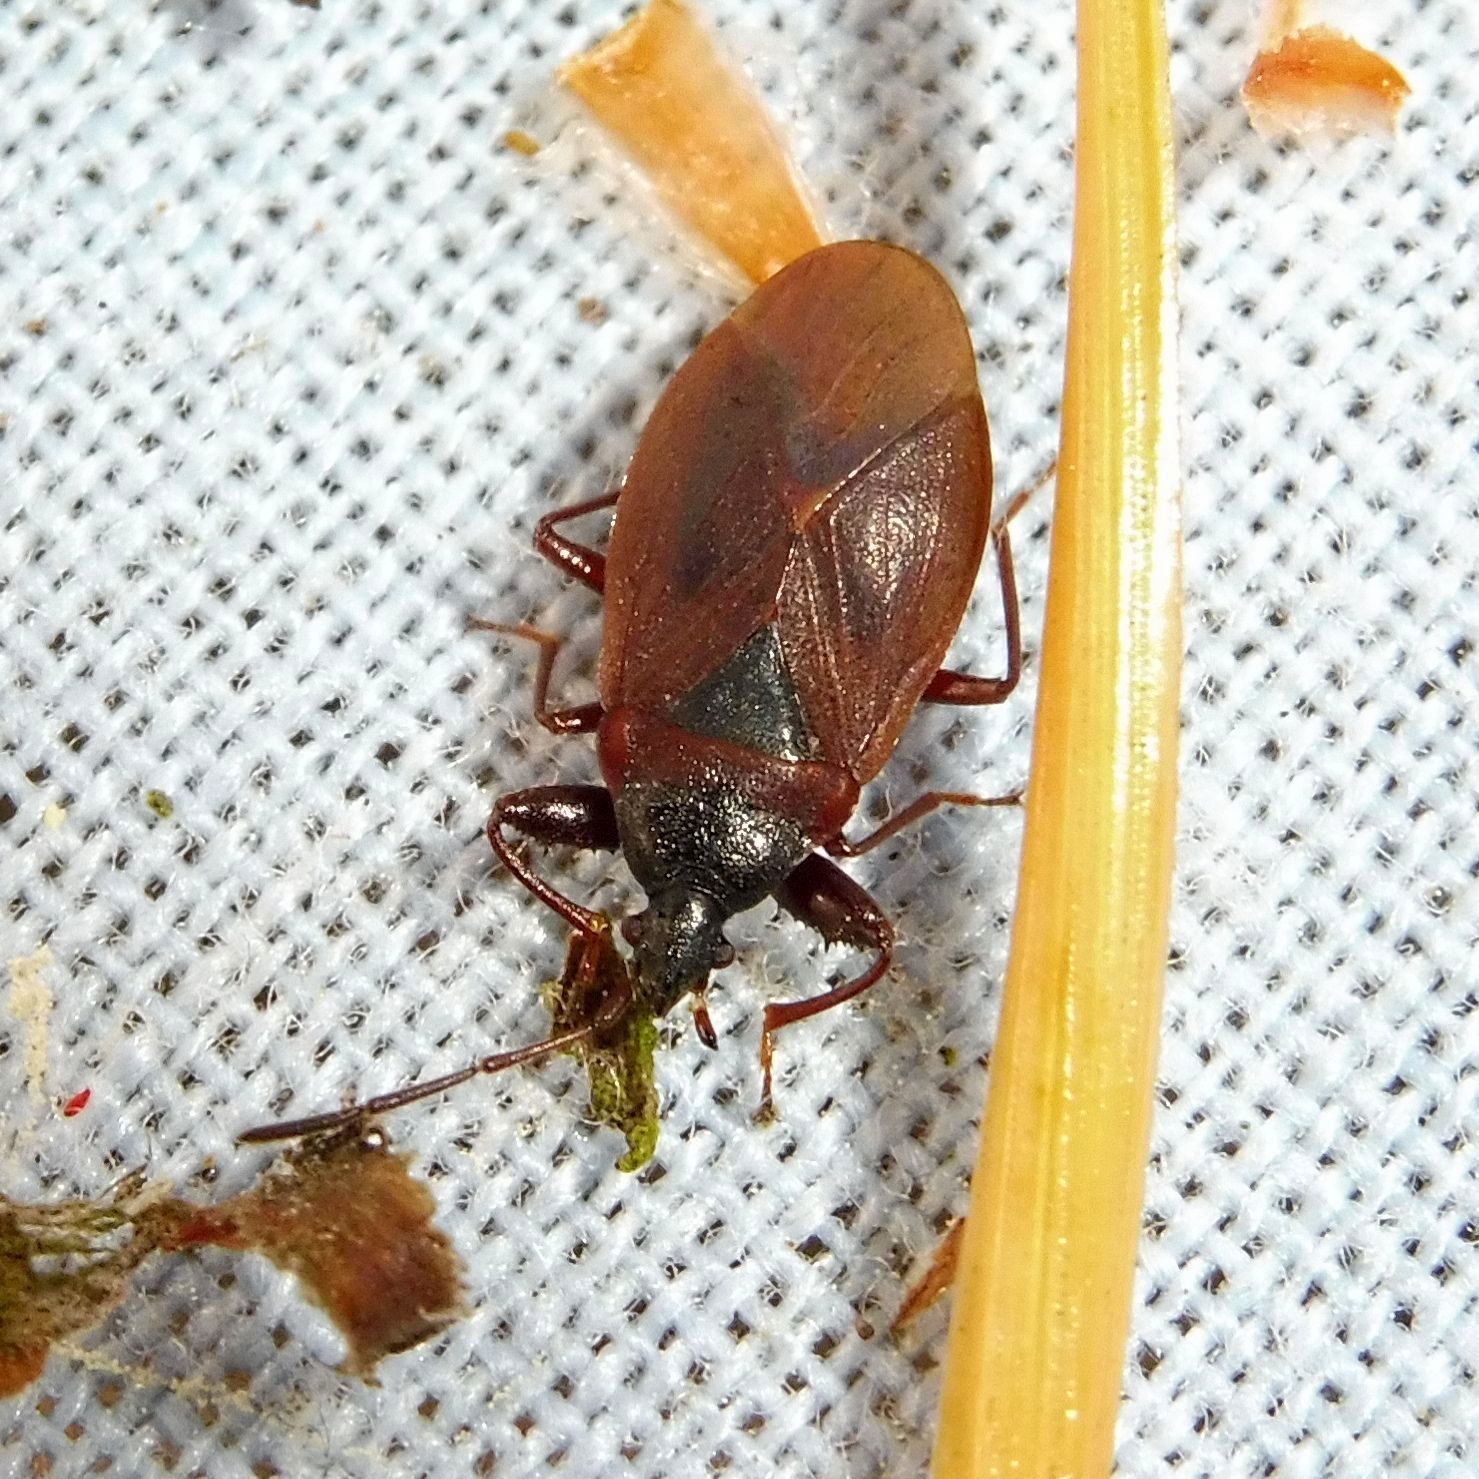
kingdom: Animalia
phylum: Arthropoda
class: Insecta
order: Hemiptera
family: Rhyparochromidae
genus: Gastrodes
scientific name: Gastrodes grossipes
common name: Pine cone bug
